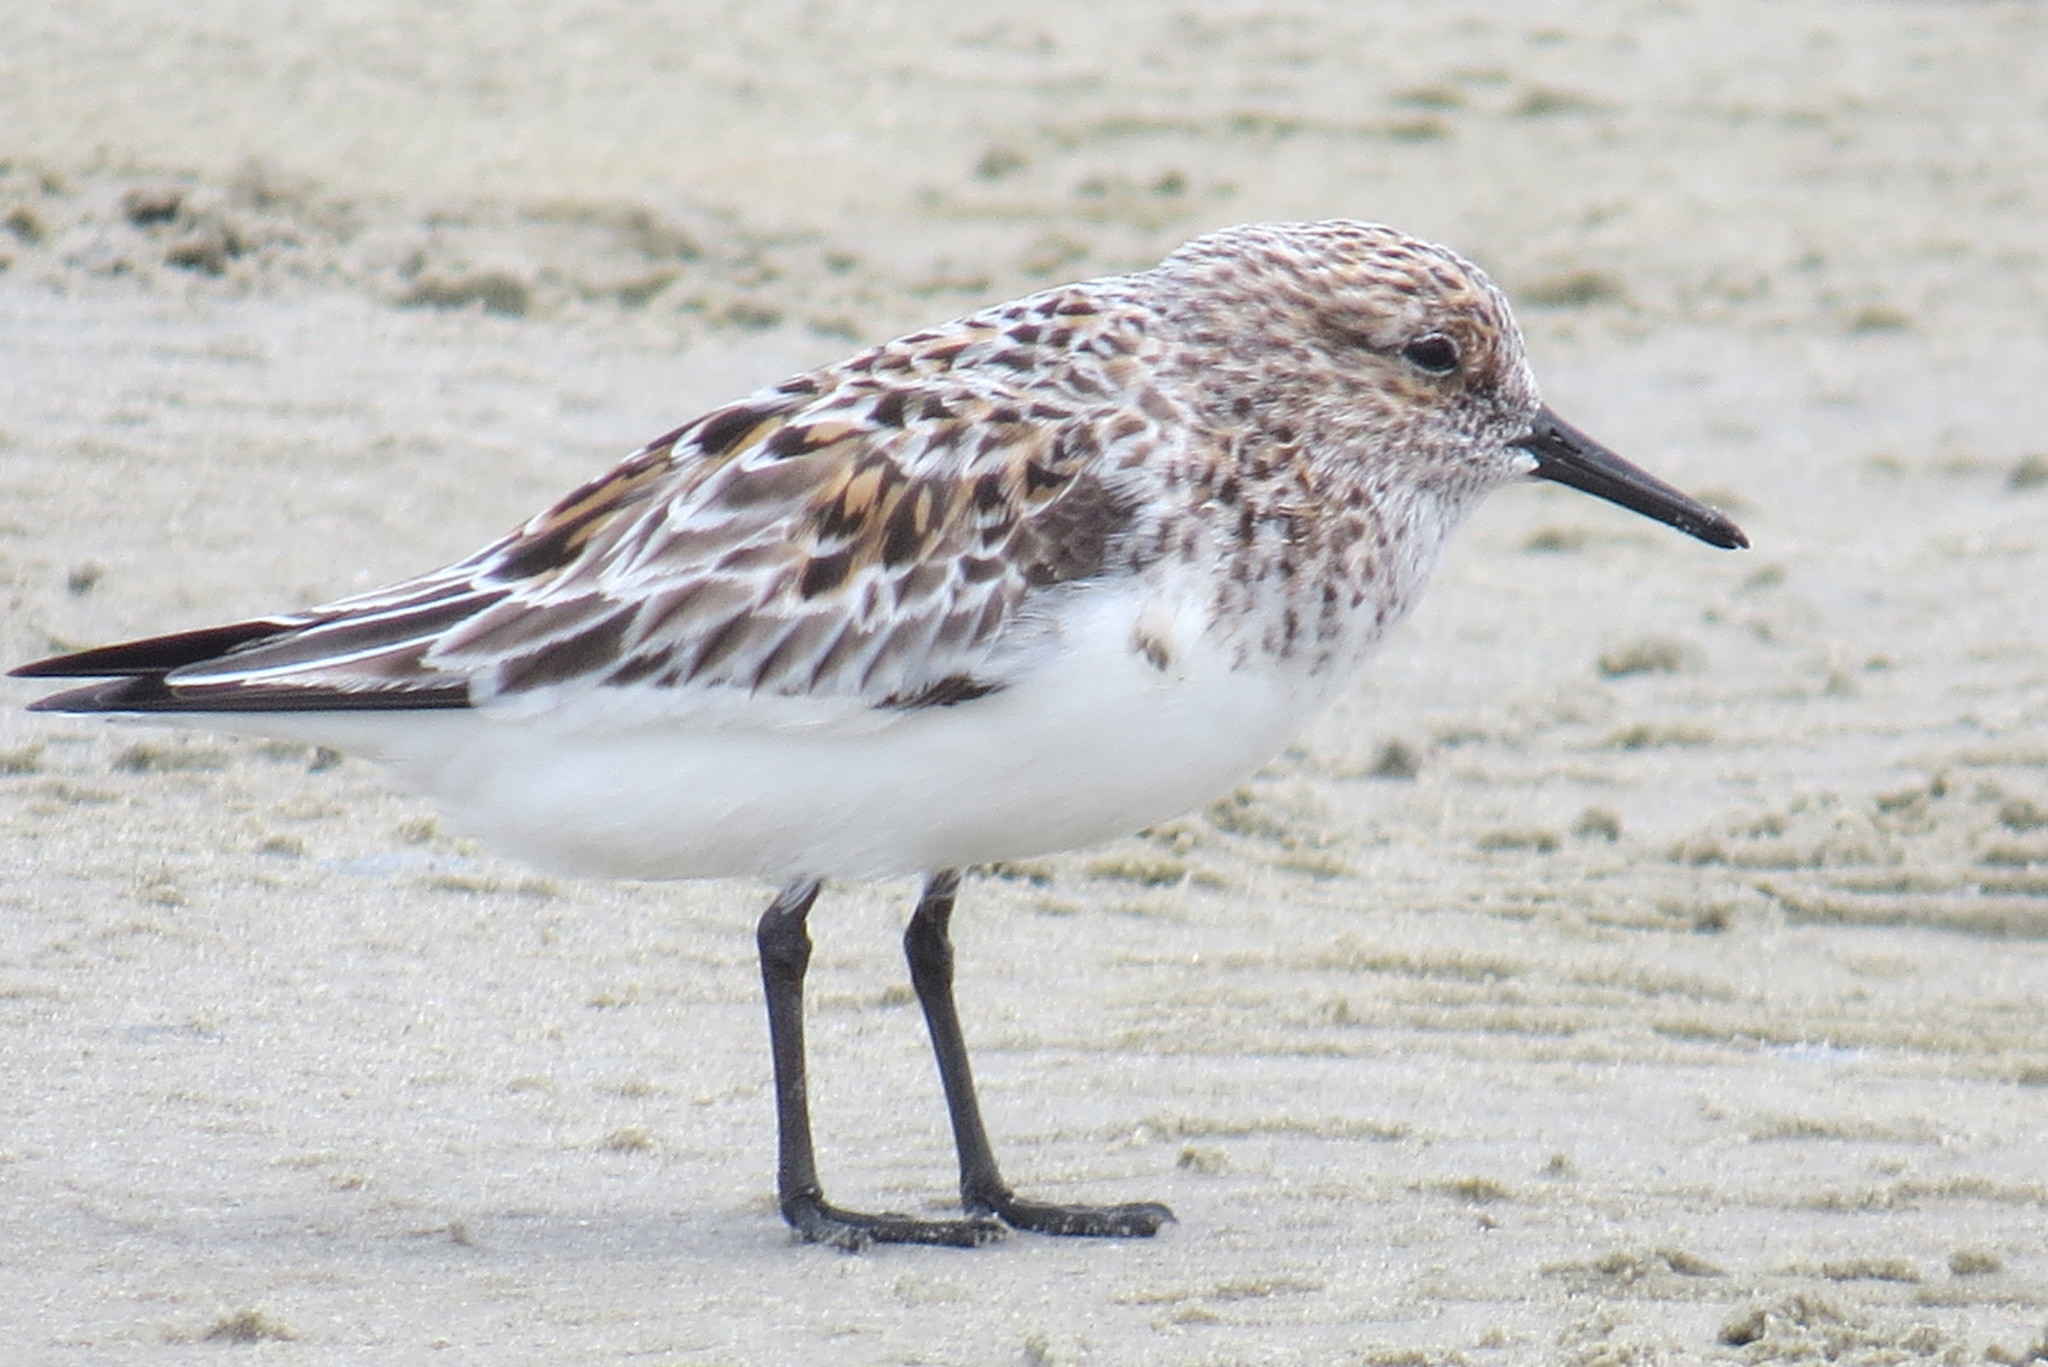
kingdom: Animalia
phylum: Chordata
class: Aves
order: Charadriiformes
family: Scolopacidae
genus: Calidris
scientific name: Calidris pusilla
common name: Semipalmated sandpiper
